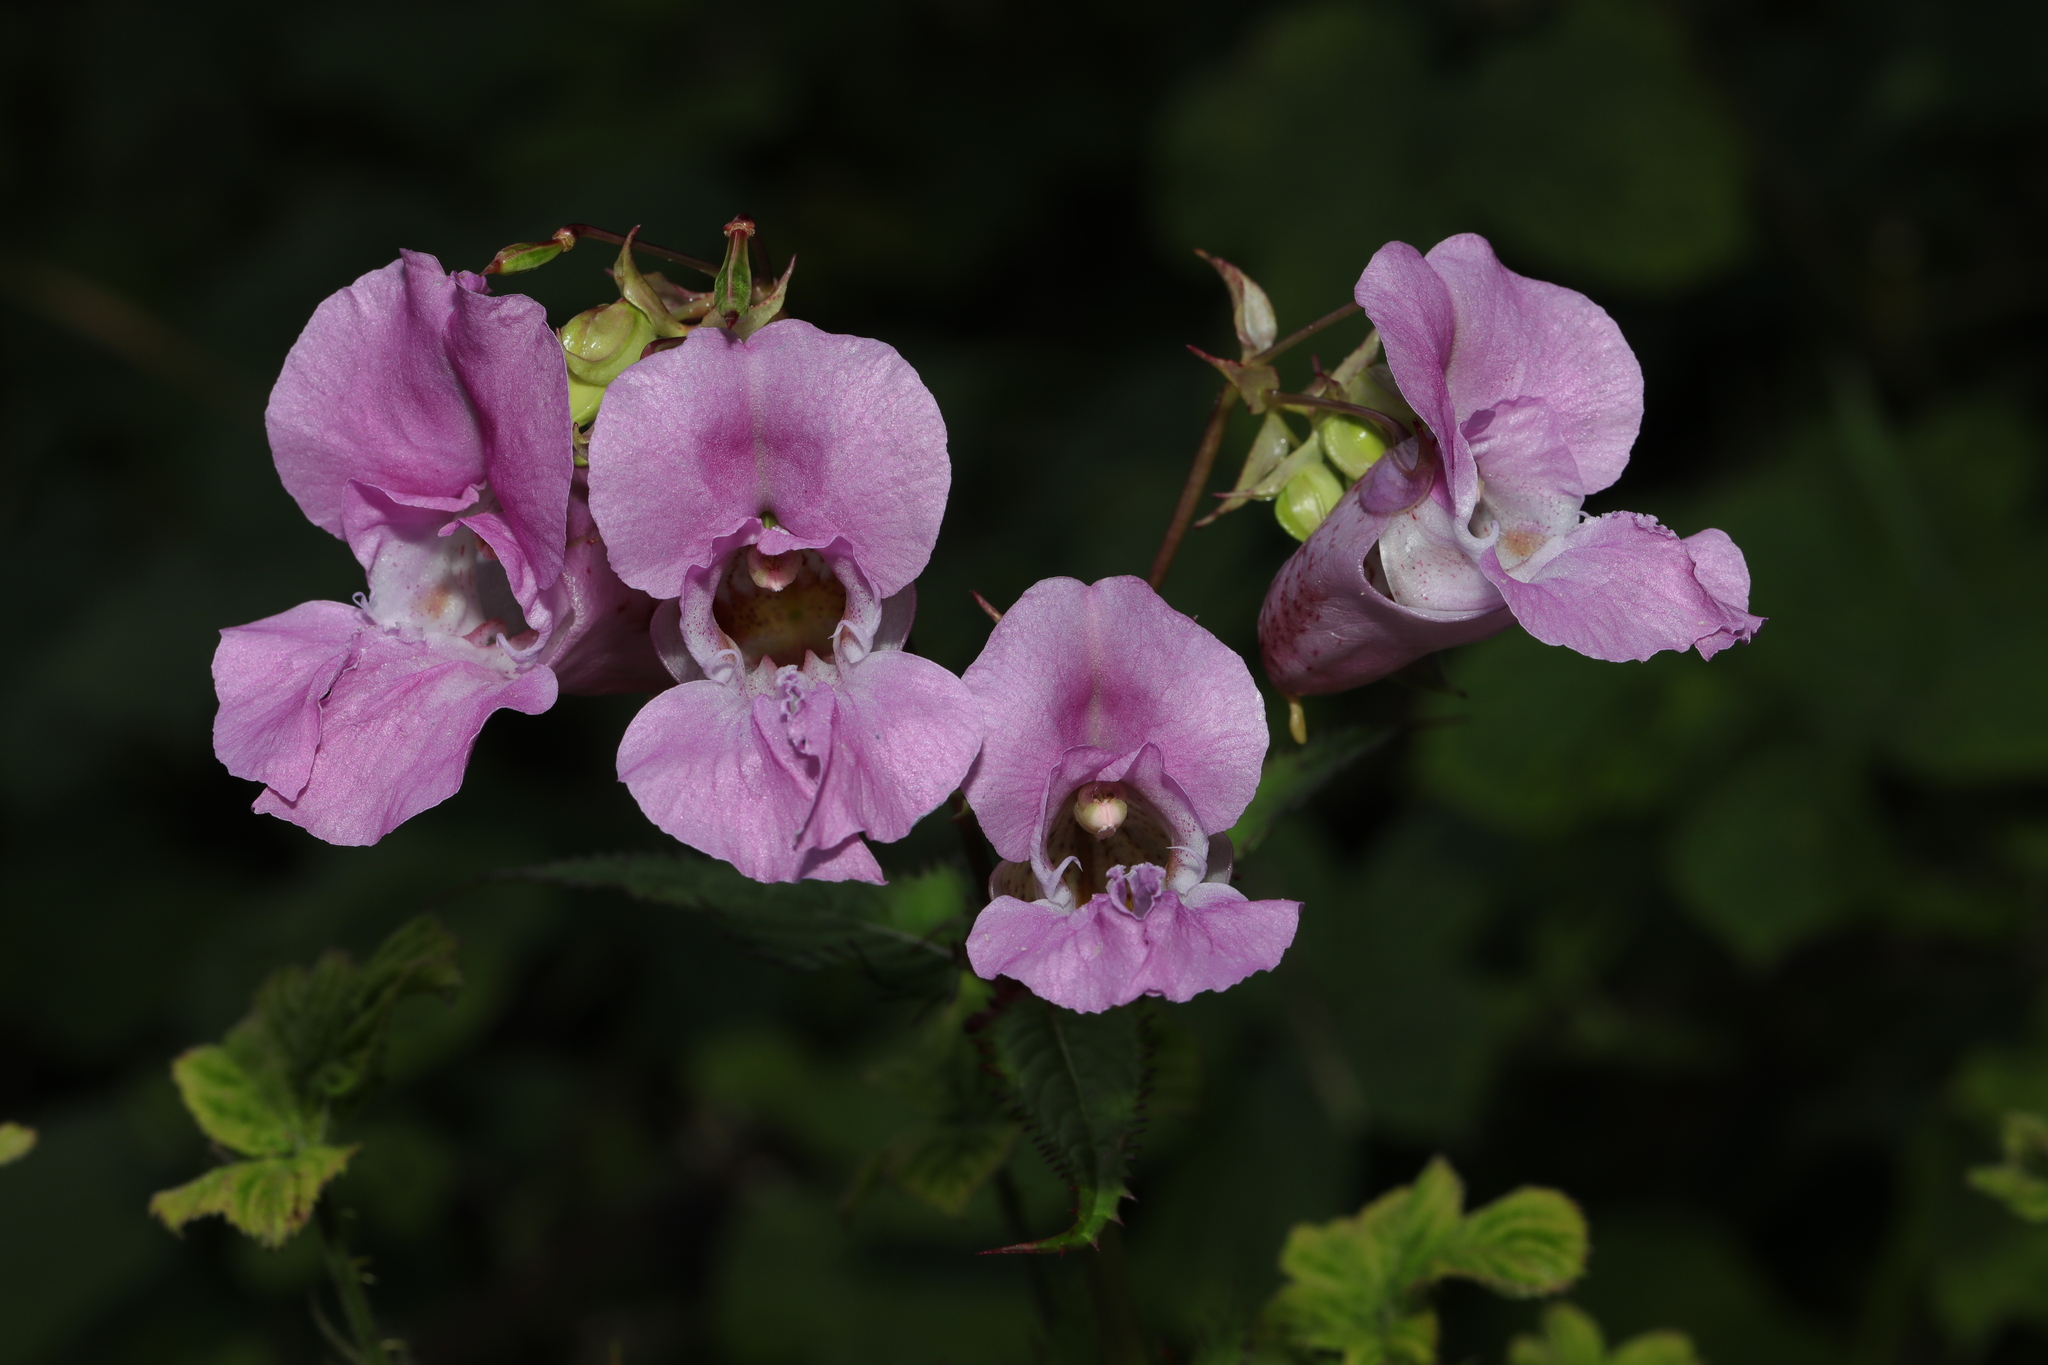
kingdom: Plantae
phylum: Tracheophyta
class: Magnoliopsida
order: Ericales
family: Balsaminaceae
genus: Impatiens
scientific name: Impatiens glandulifera
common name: Himalayan balsam
